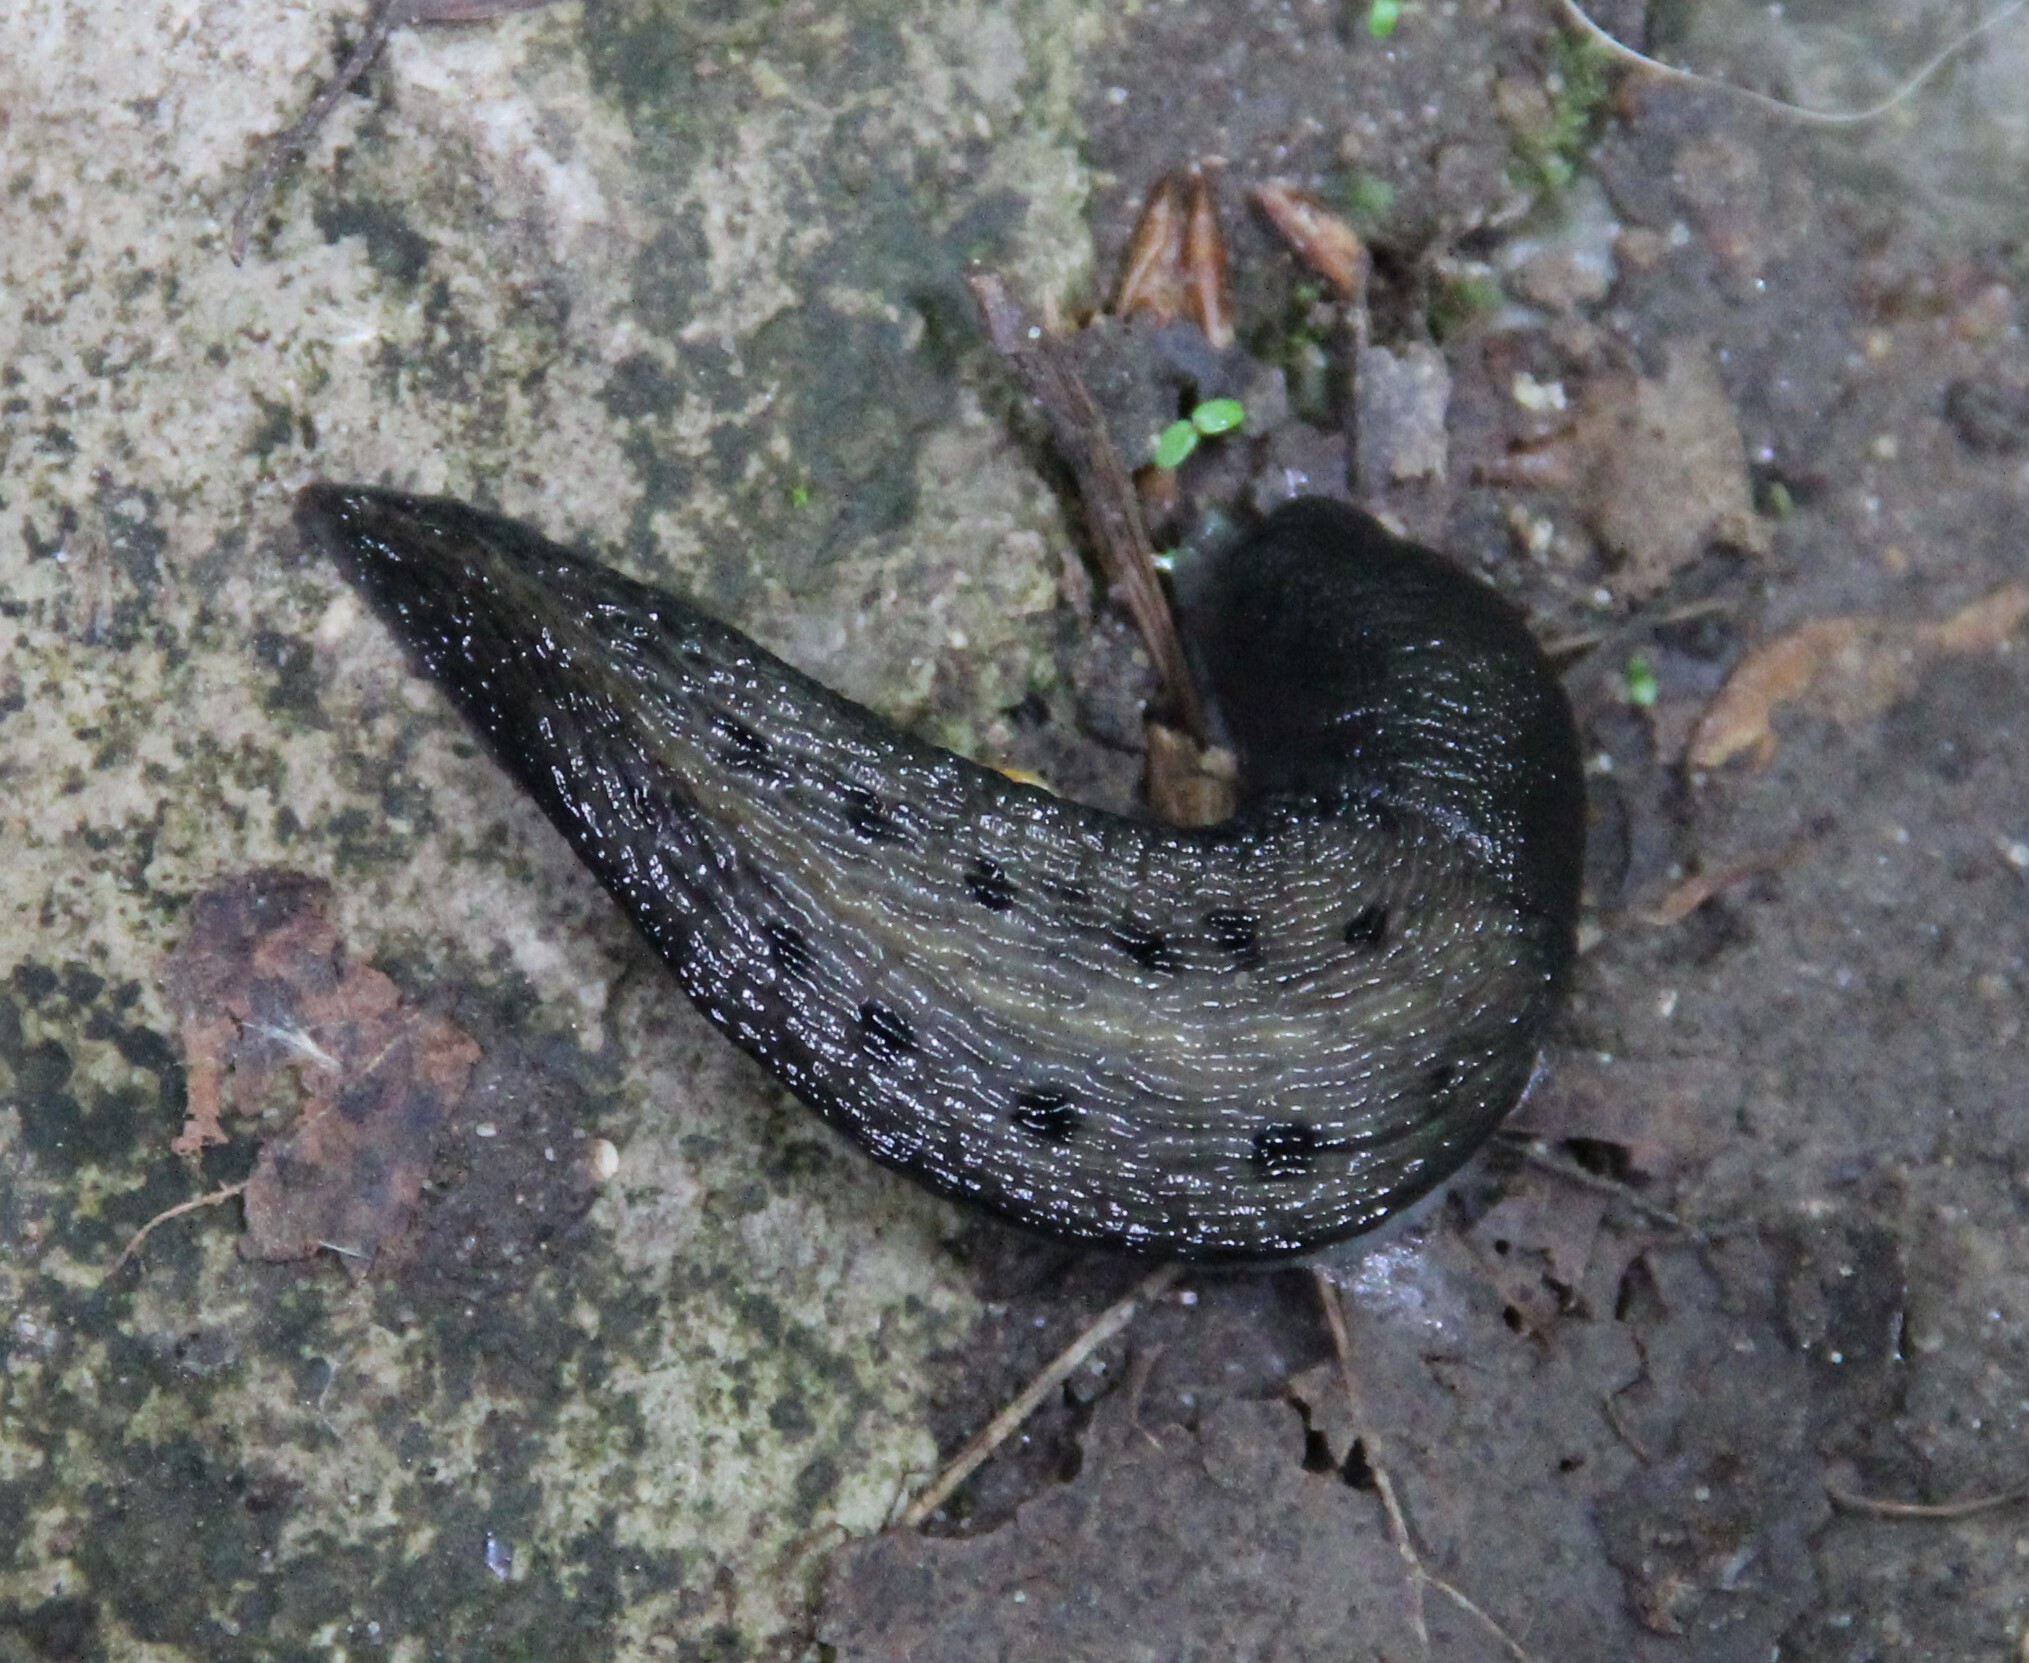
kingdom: Animalia
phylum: Mollusca
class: Gastropoda
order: Stylommatophora
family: Limacidae
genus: Limax
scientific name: Limax cinereoniger
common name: Ash-black slug
